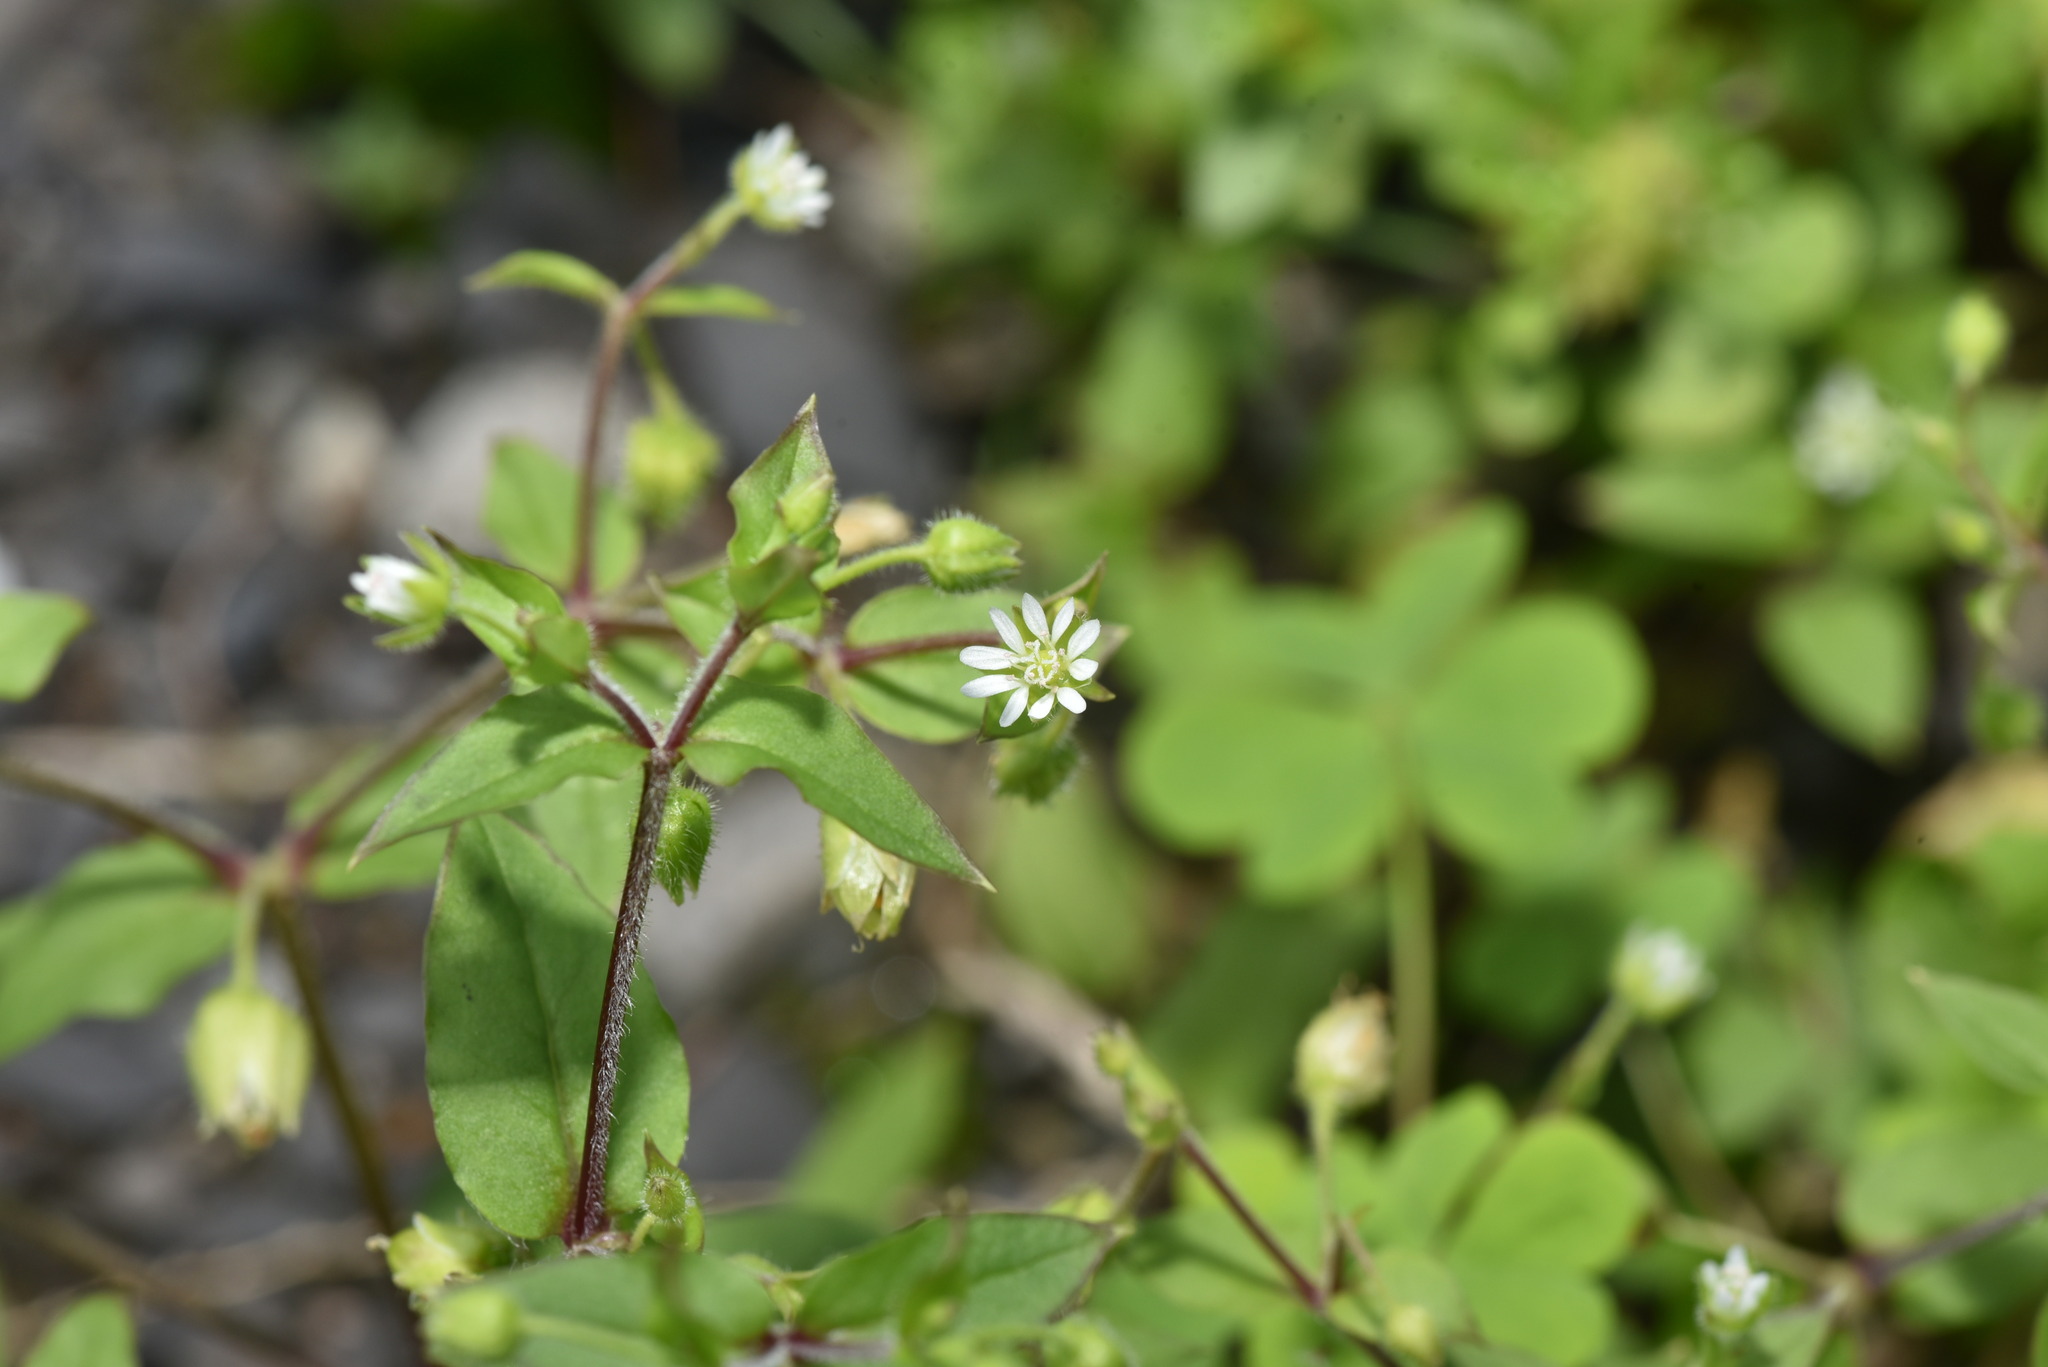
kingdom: Plantae
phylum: Tracheophyta
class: Magnoliopsida
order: Caryophyllales
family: Caryophyllaceae
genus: Stellaria
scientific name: Stellaria aquatica
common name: Water chickweed
